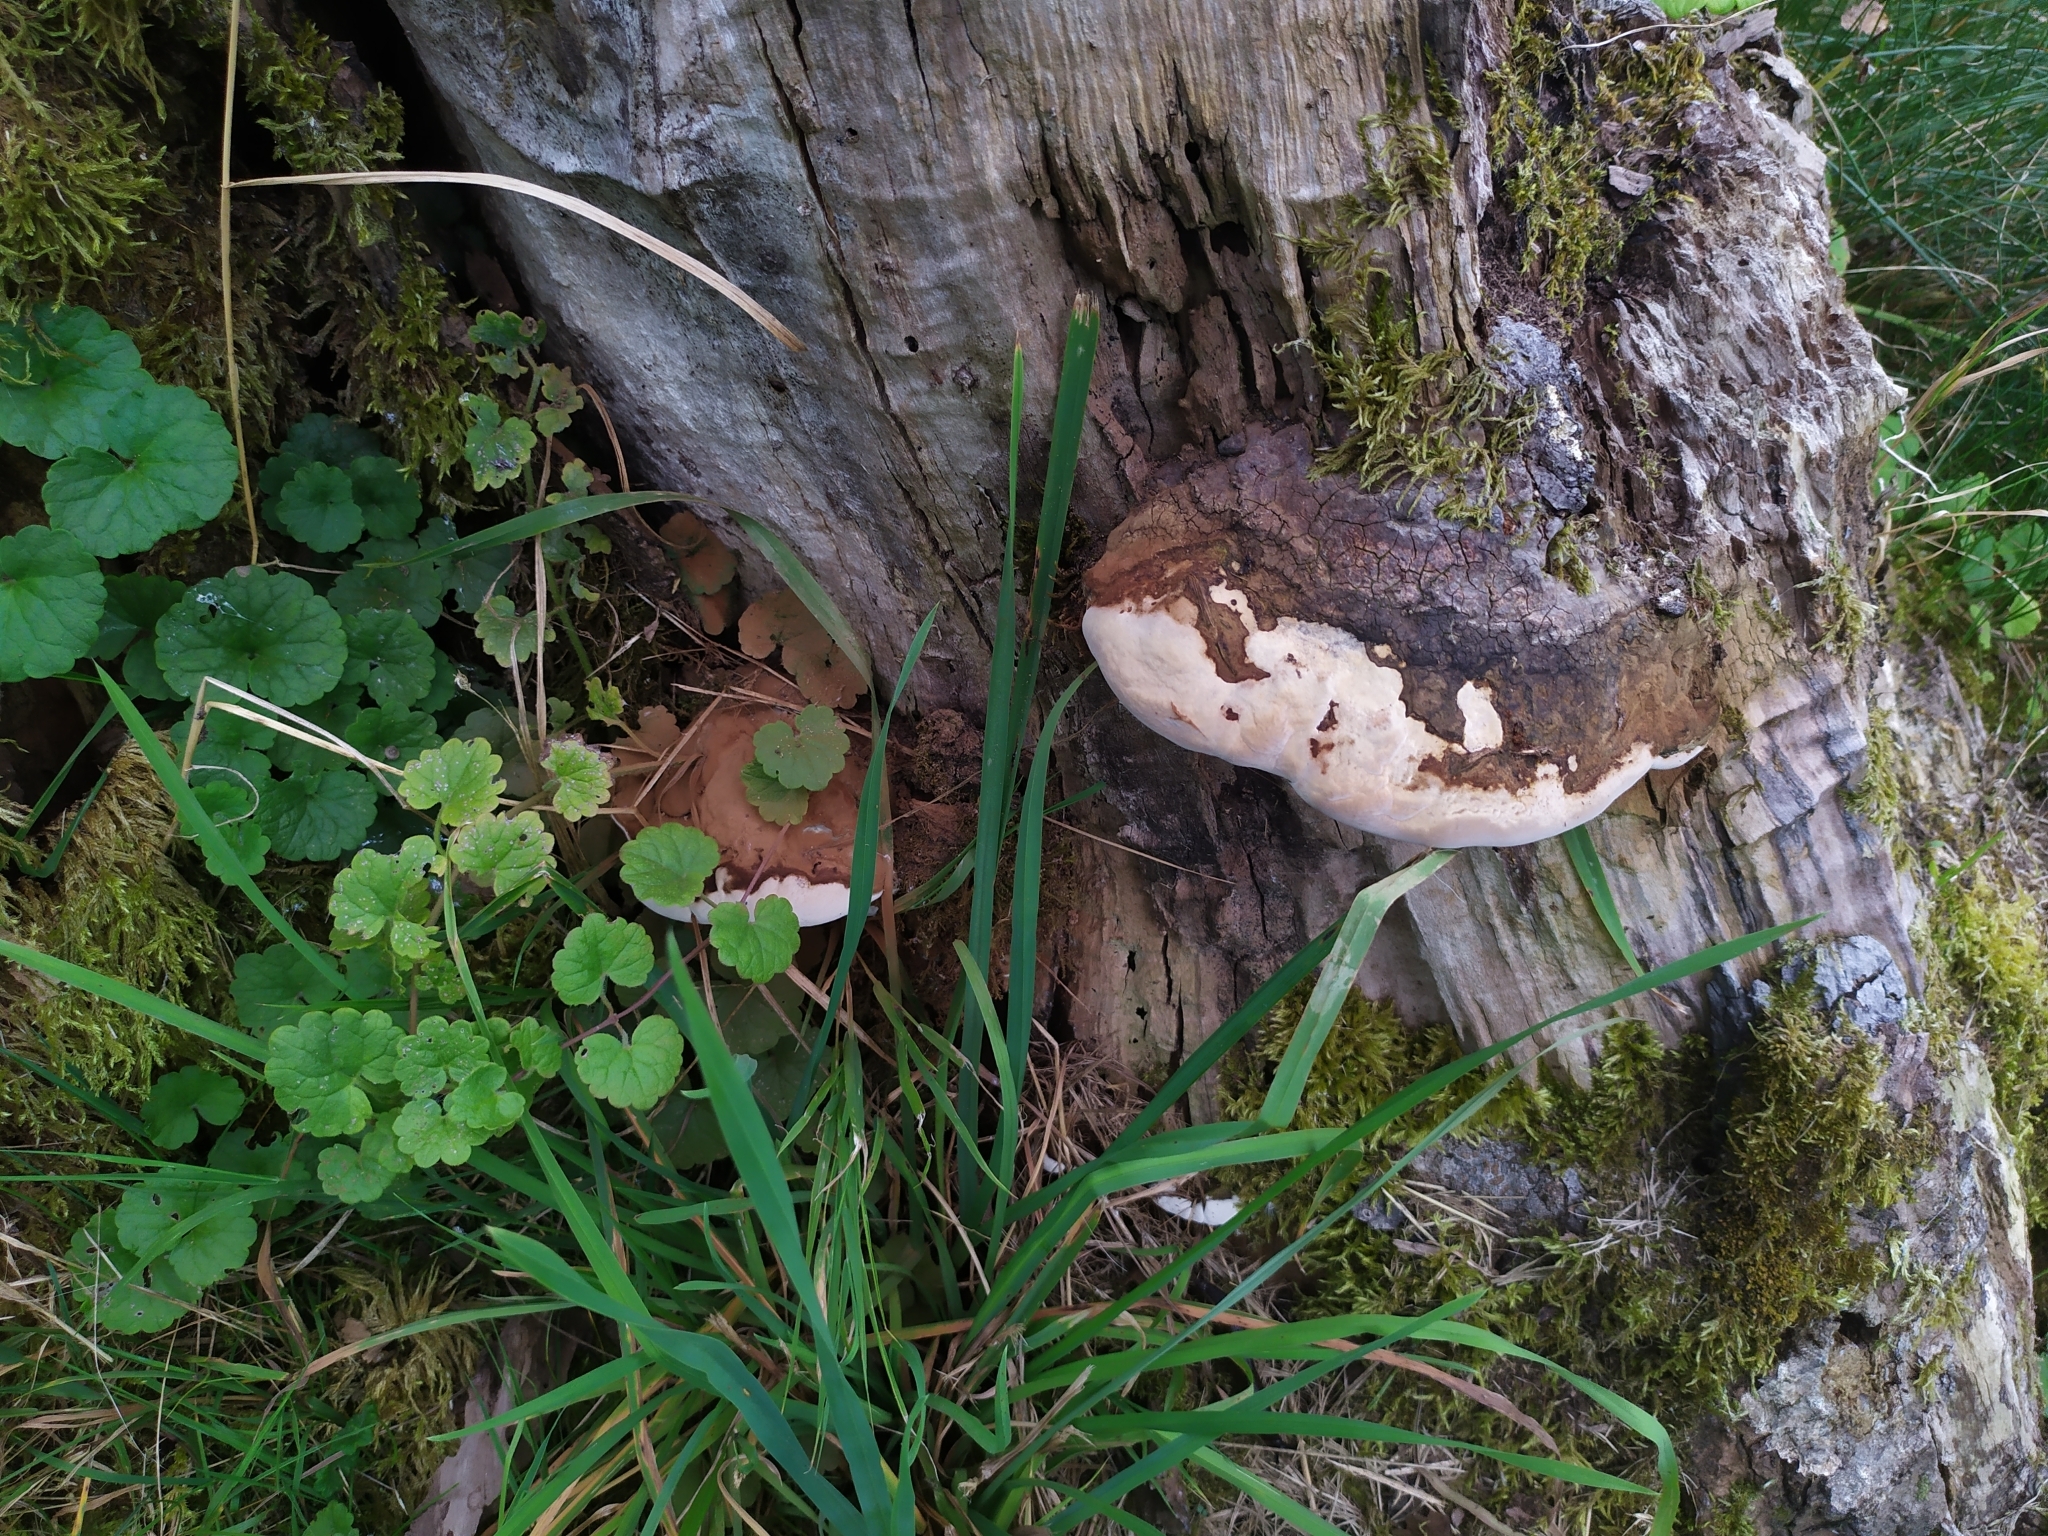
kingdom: Fungi
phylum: Basidiomycota
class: Agaricomycetes
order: Polyporales
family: Polyporaceae
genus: Ganoderma
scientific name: Ganoderma adspersum
